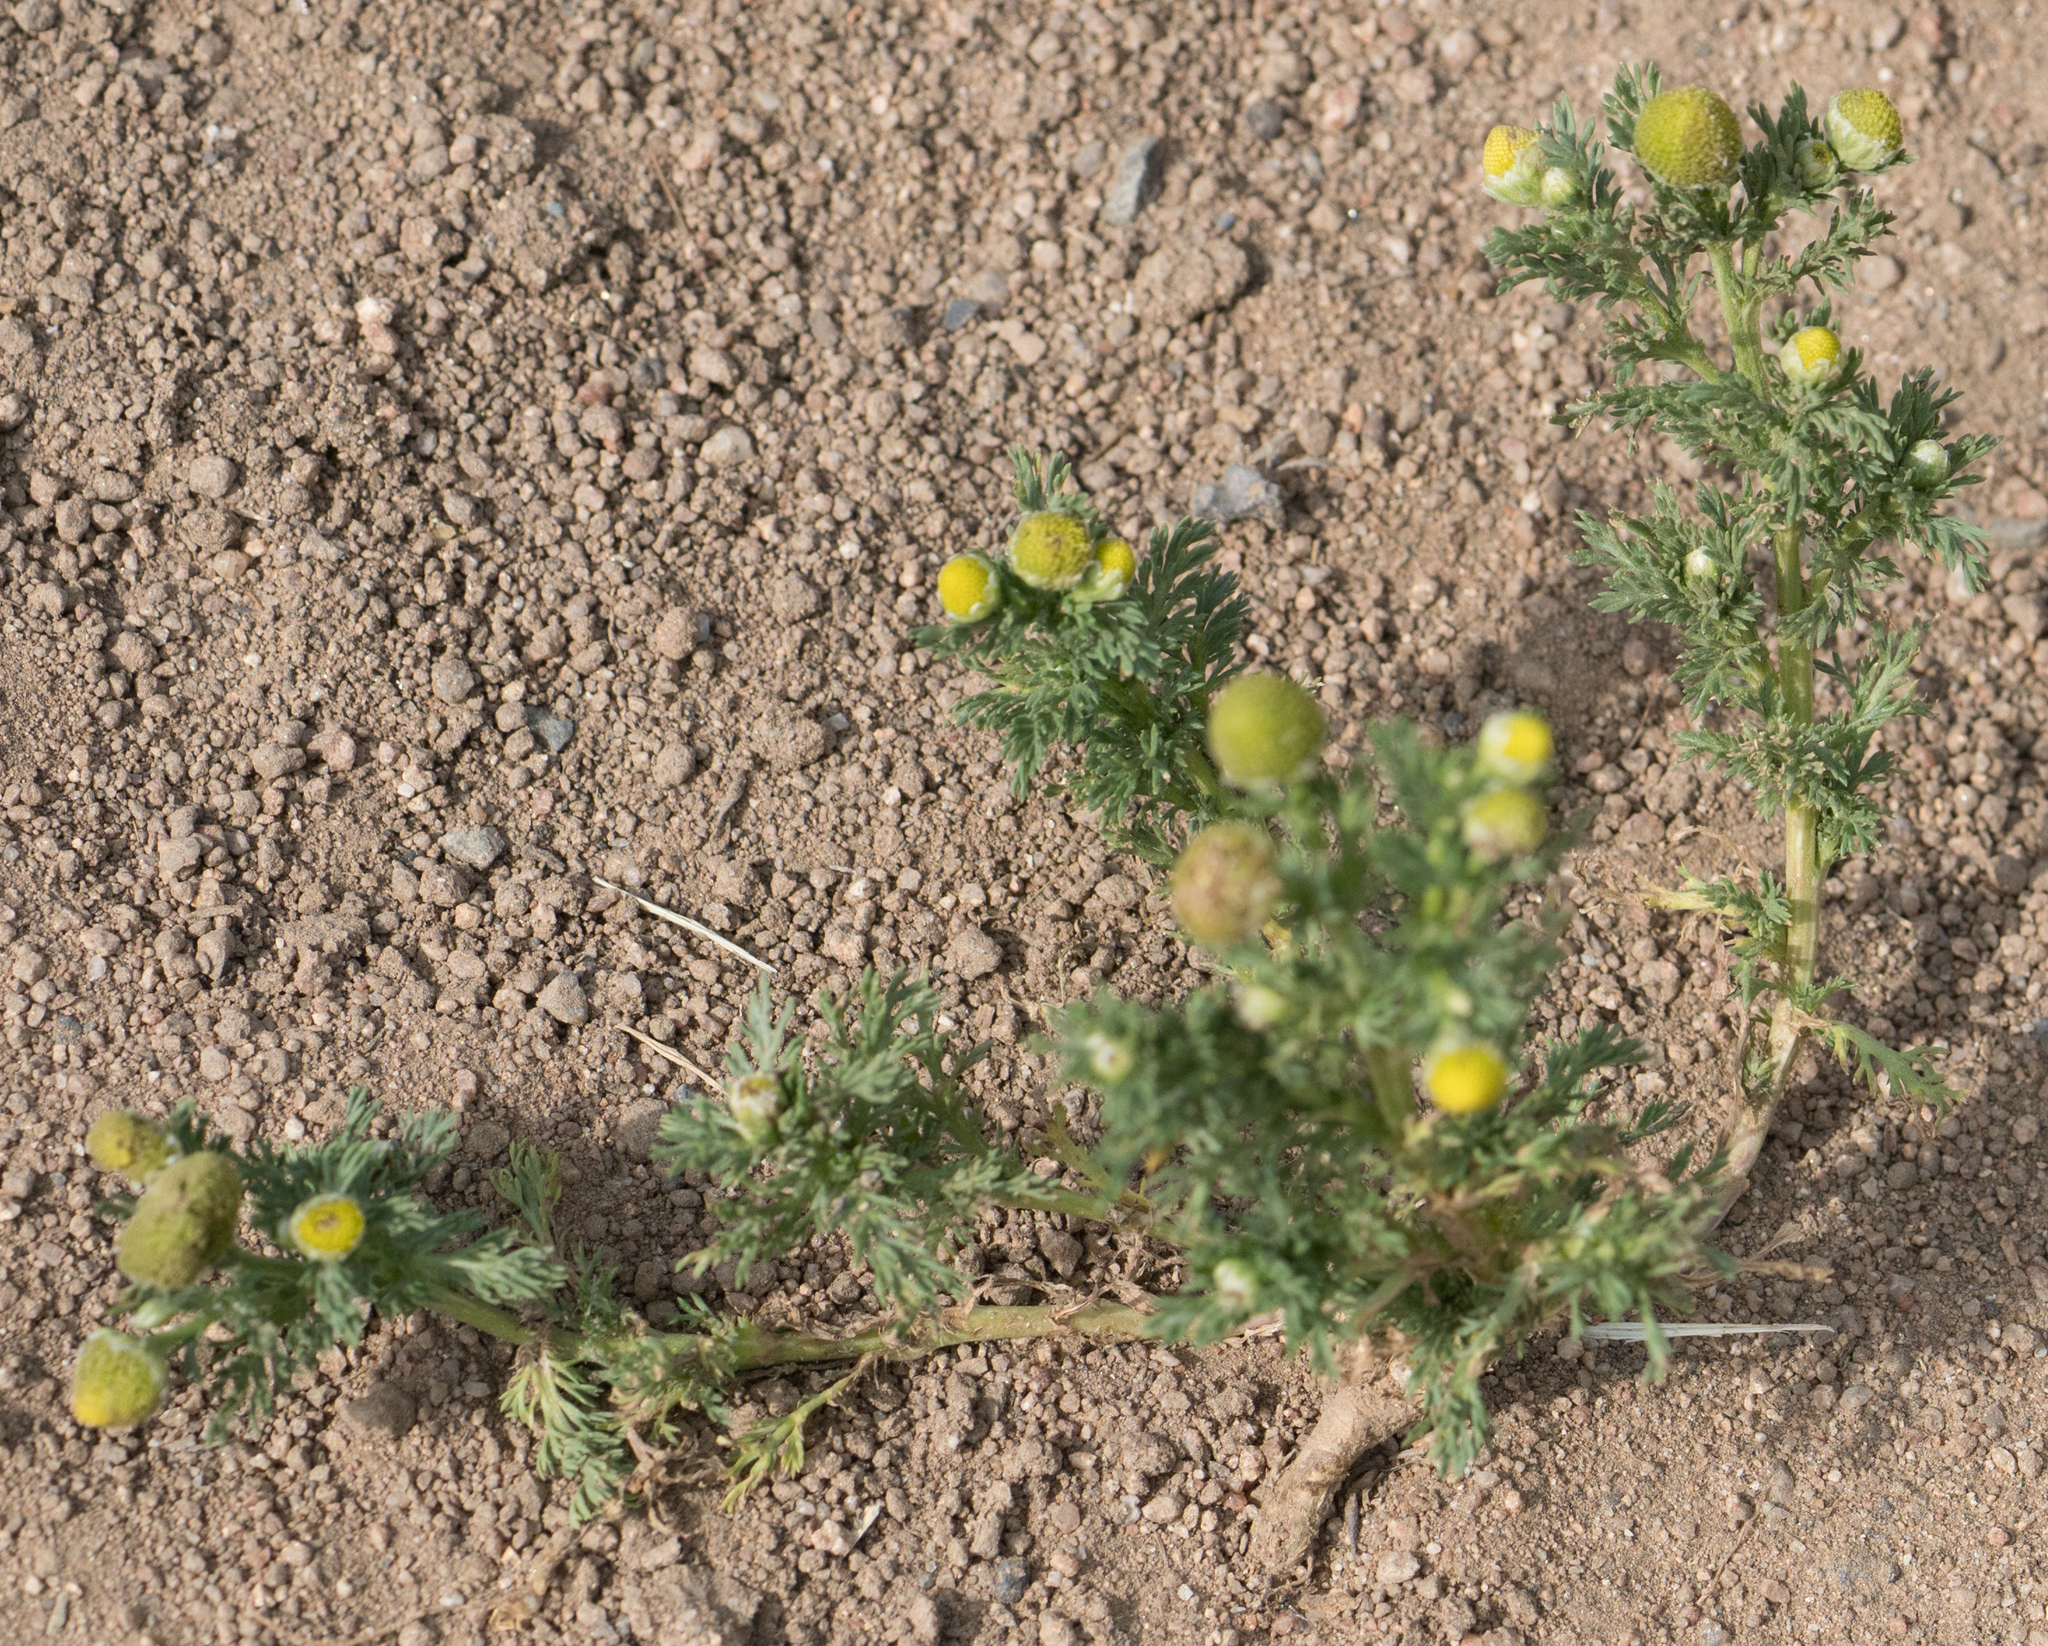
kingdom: Plantae
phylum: Tracheophyta
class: Magnoliopsida
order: Asterales
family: Asteraceae
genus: Matricaria
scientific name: Matricaria discoidea
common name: Disc mayweed
